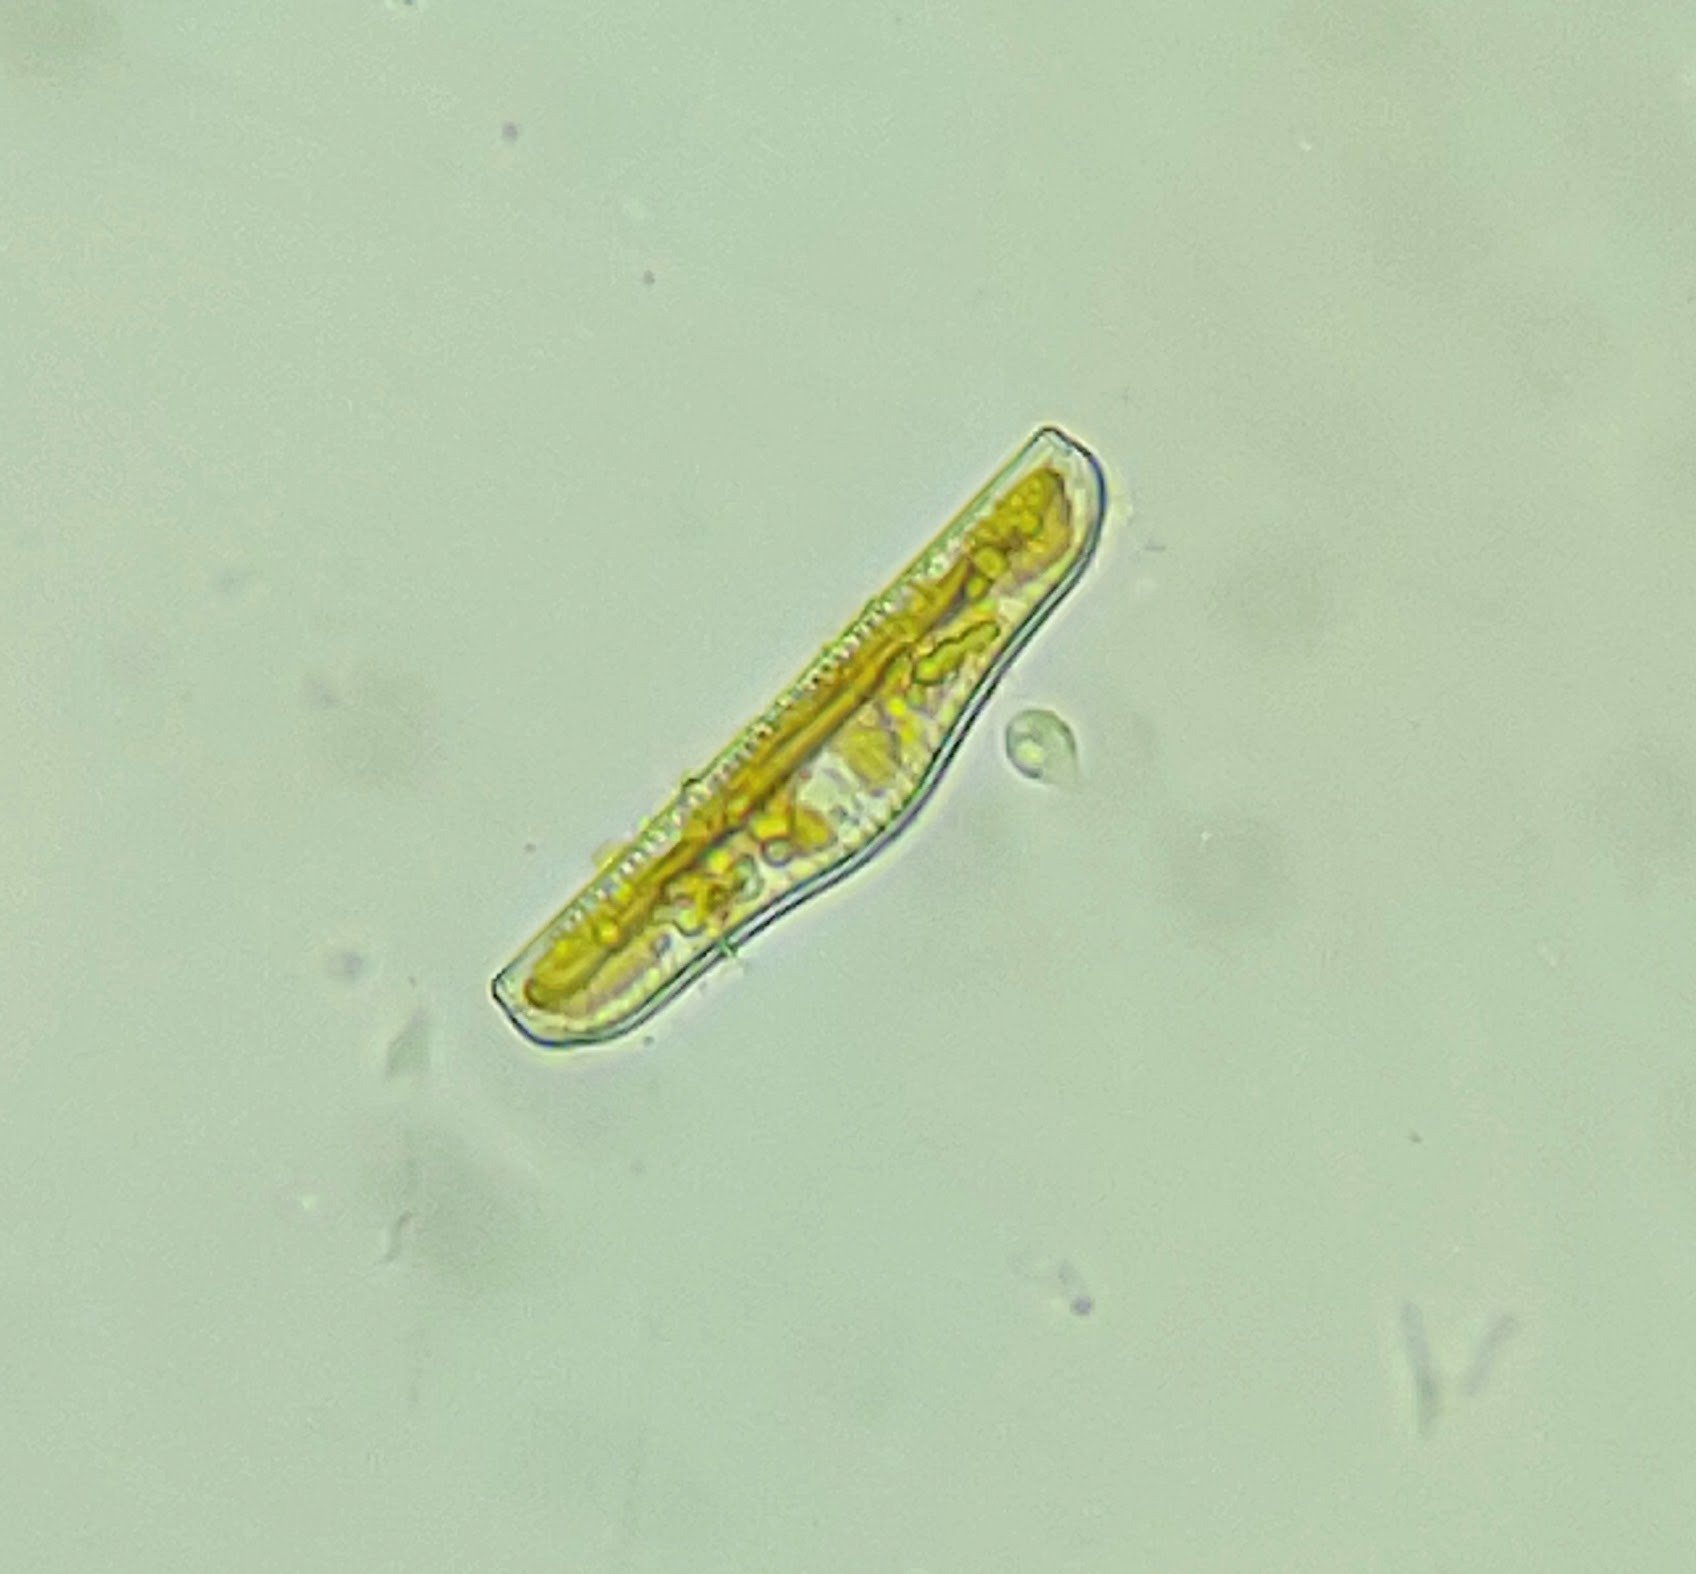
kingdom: Chromista
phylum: Ochrophyta
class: Bacillariophyceae
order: Rhopalodiales
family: Rhopalodiaceae
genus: Epithemia
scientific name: Epithemia gibba
